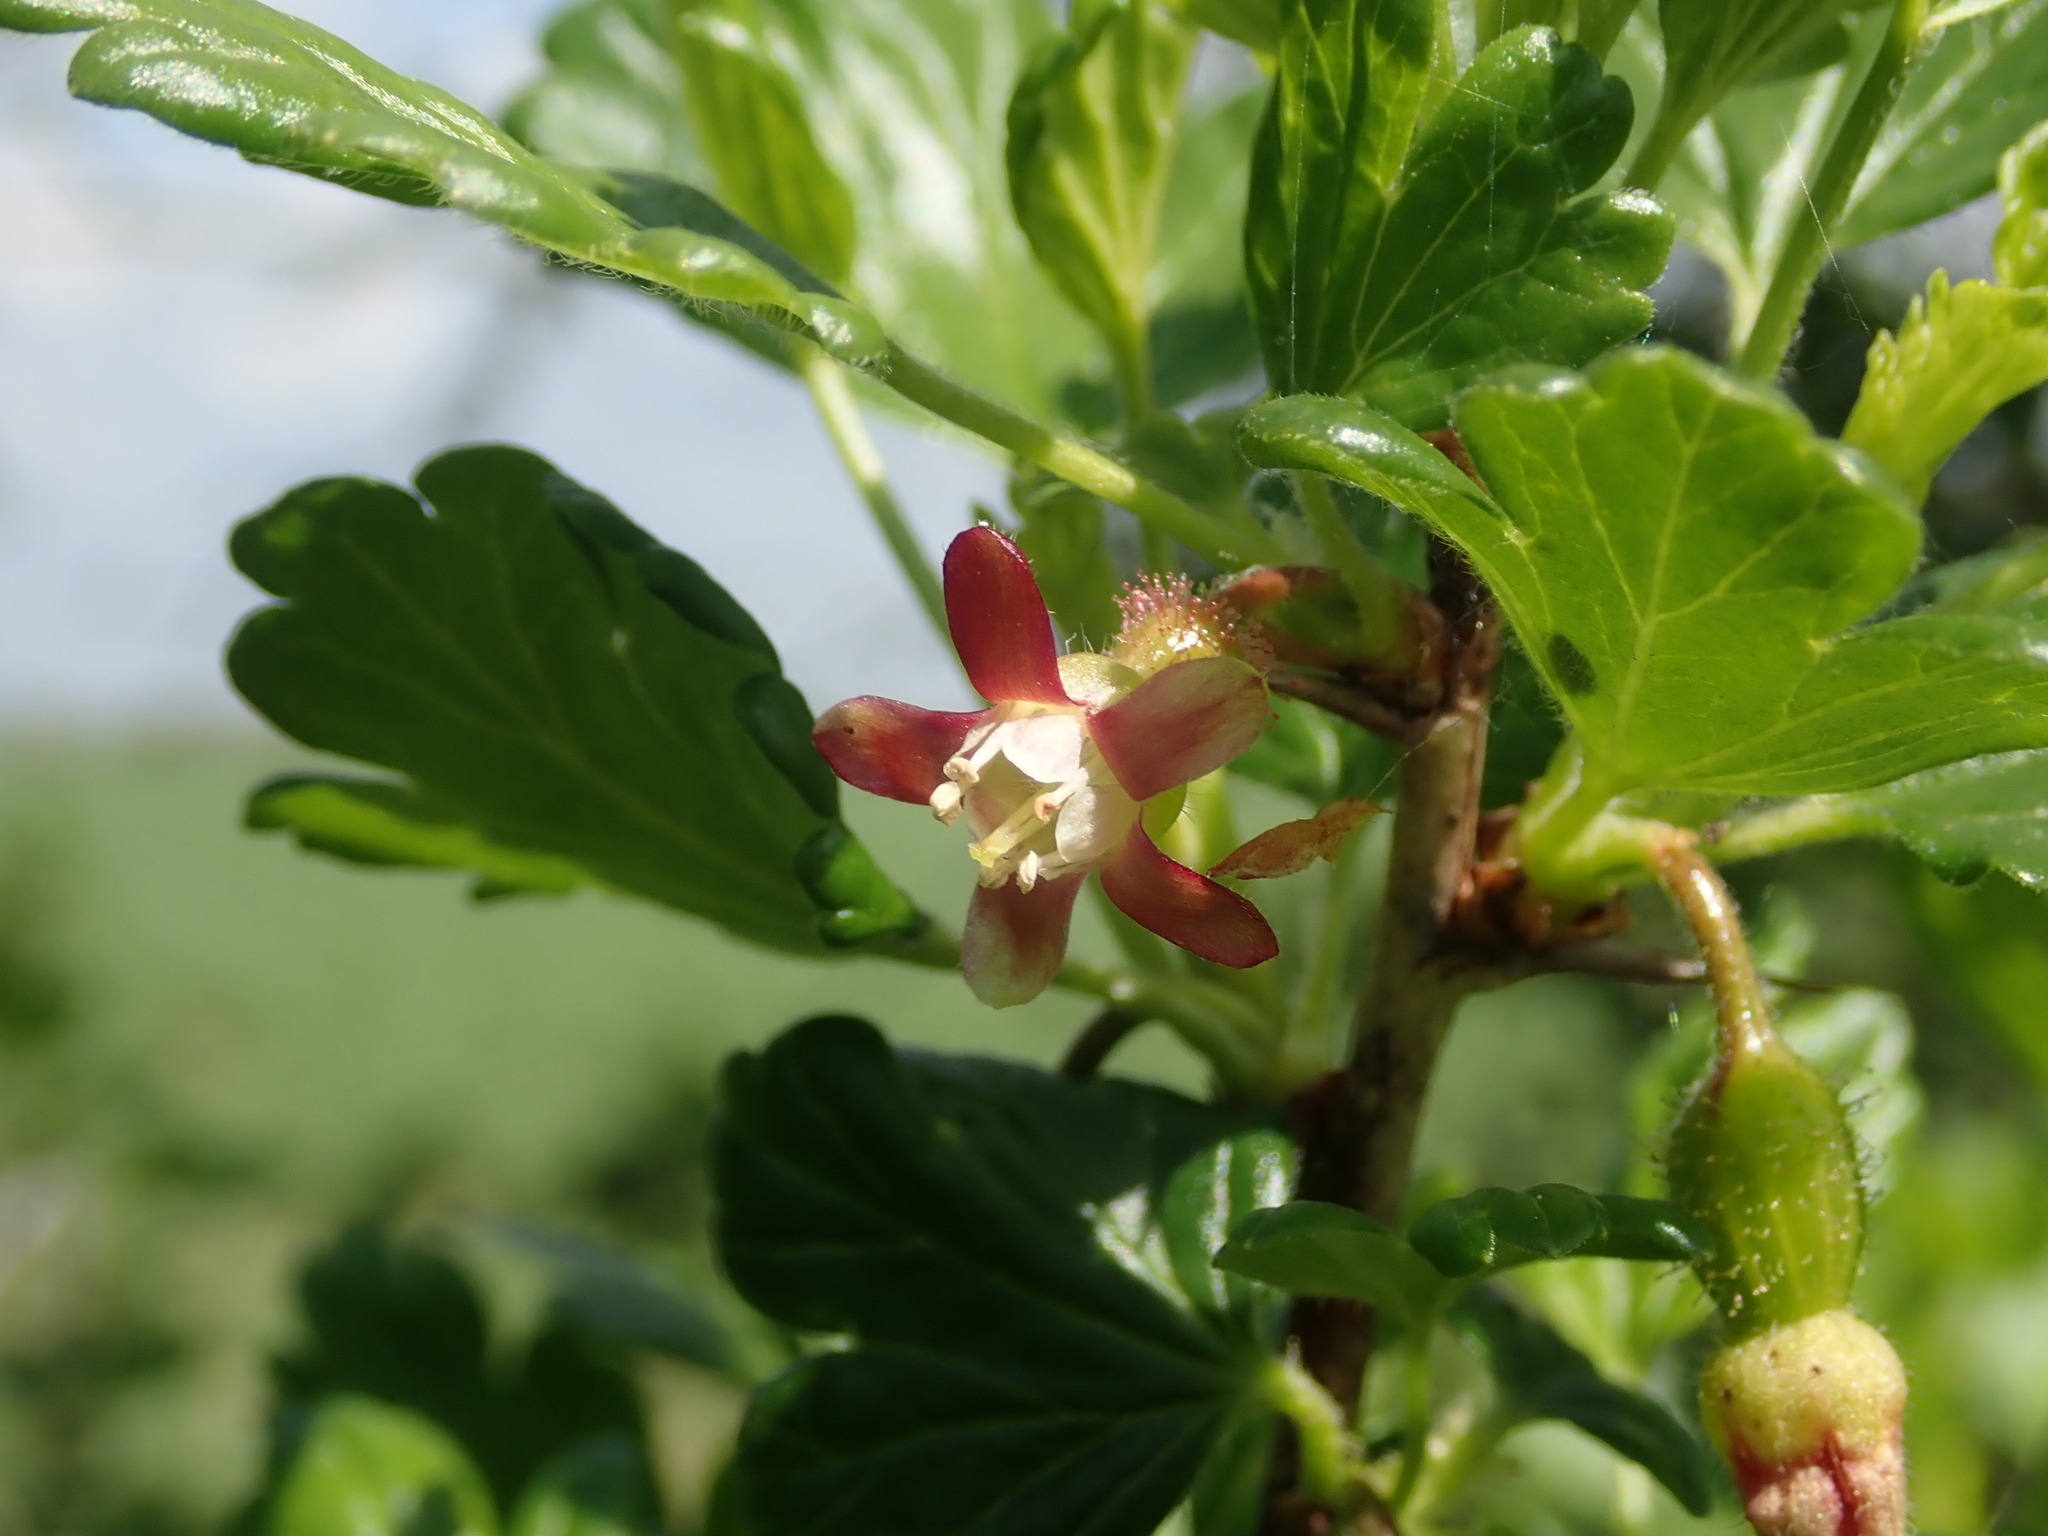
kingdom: Plantae
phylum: Tracheophyta
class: Magnoliopsida
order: Saxifragales
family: Grossulariaceae
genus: Ribes
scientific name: Ribes uva-crispa
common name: Gooseberry
